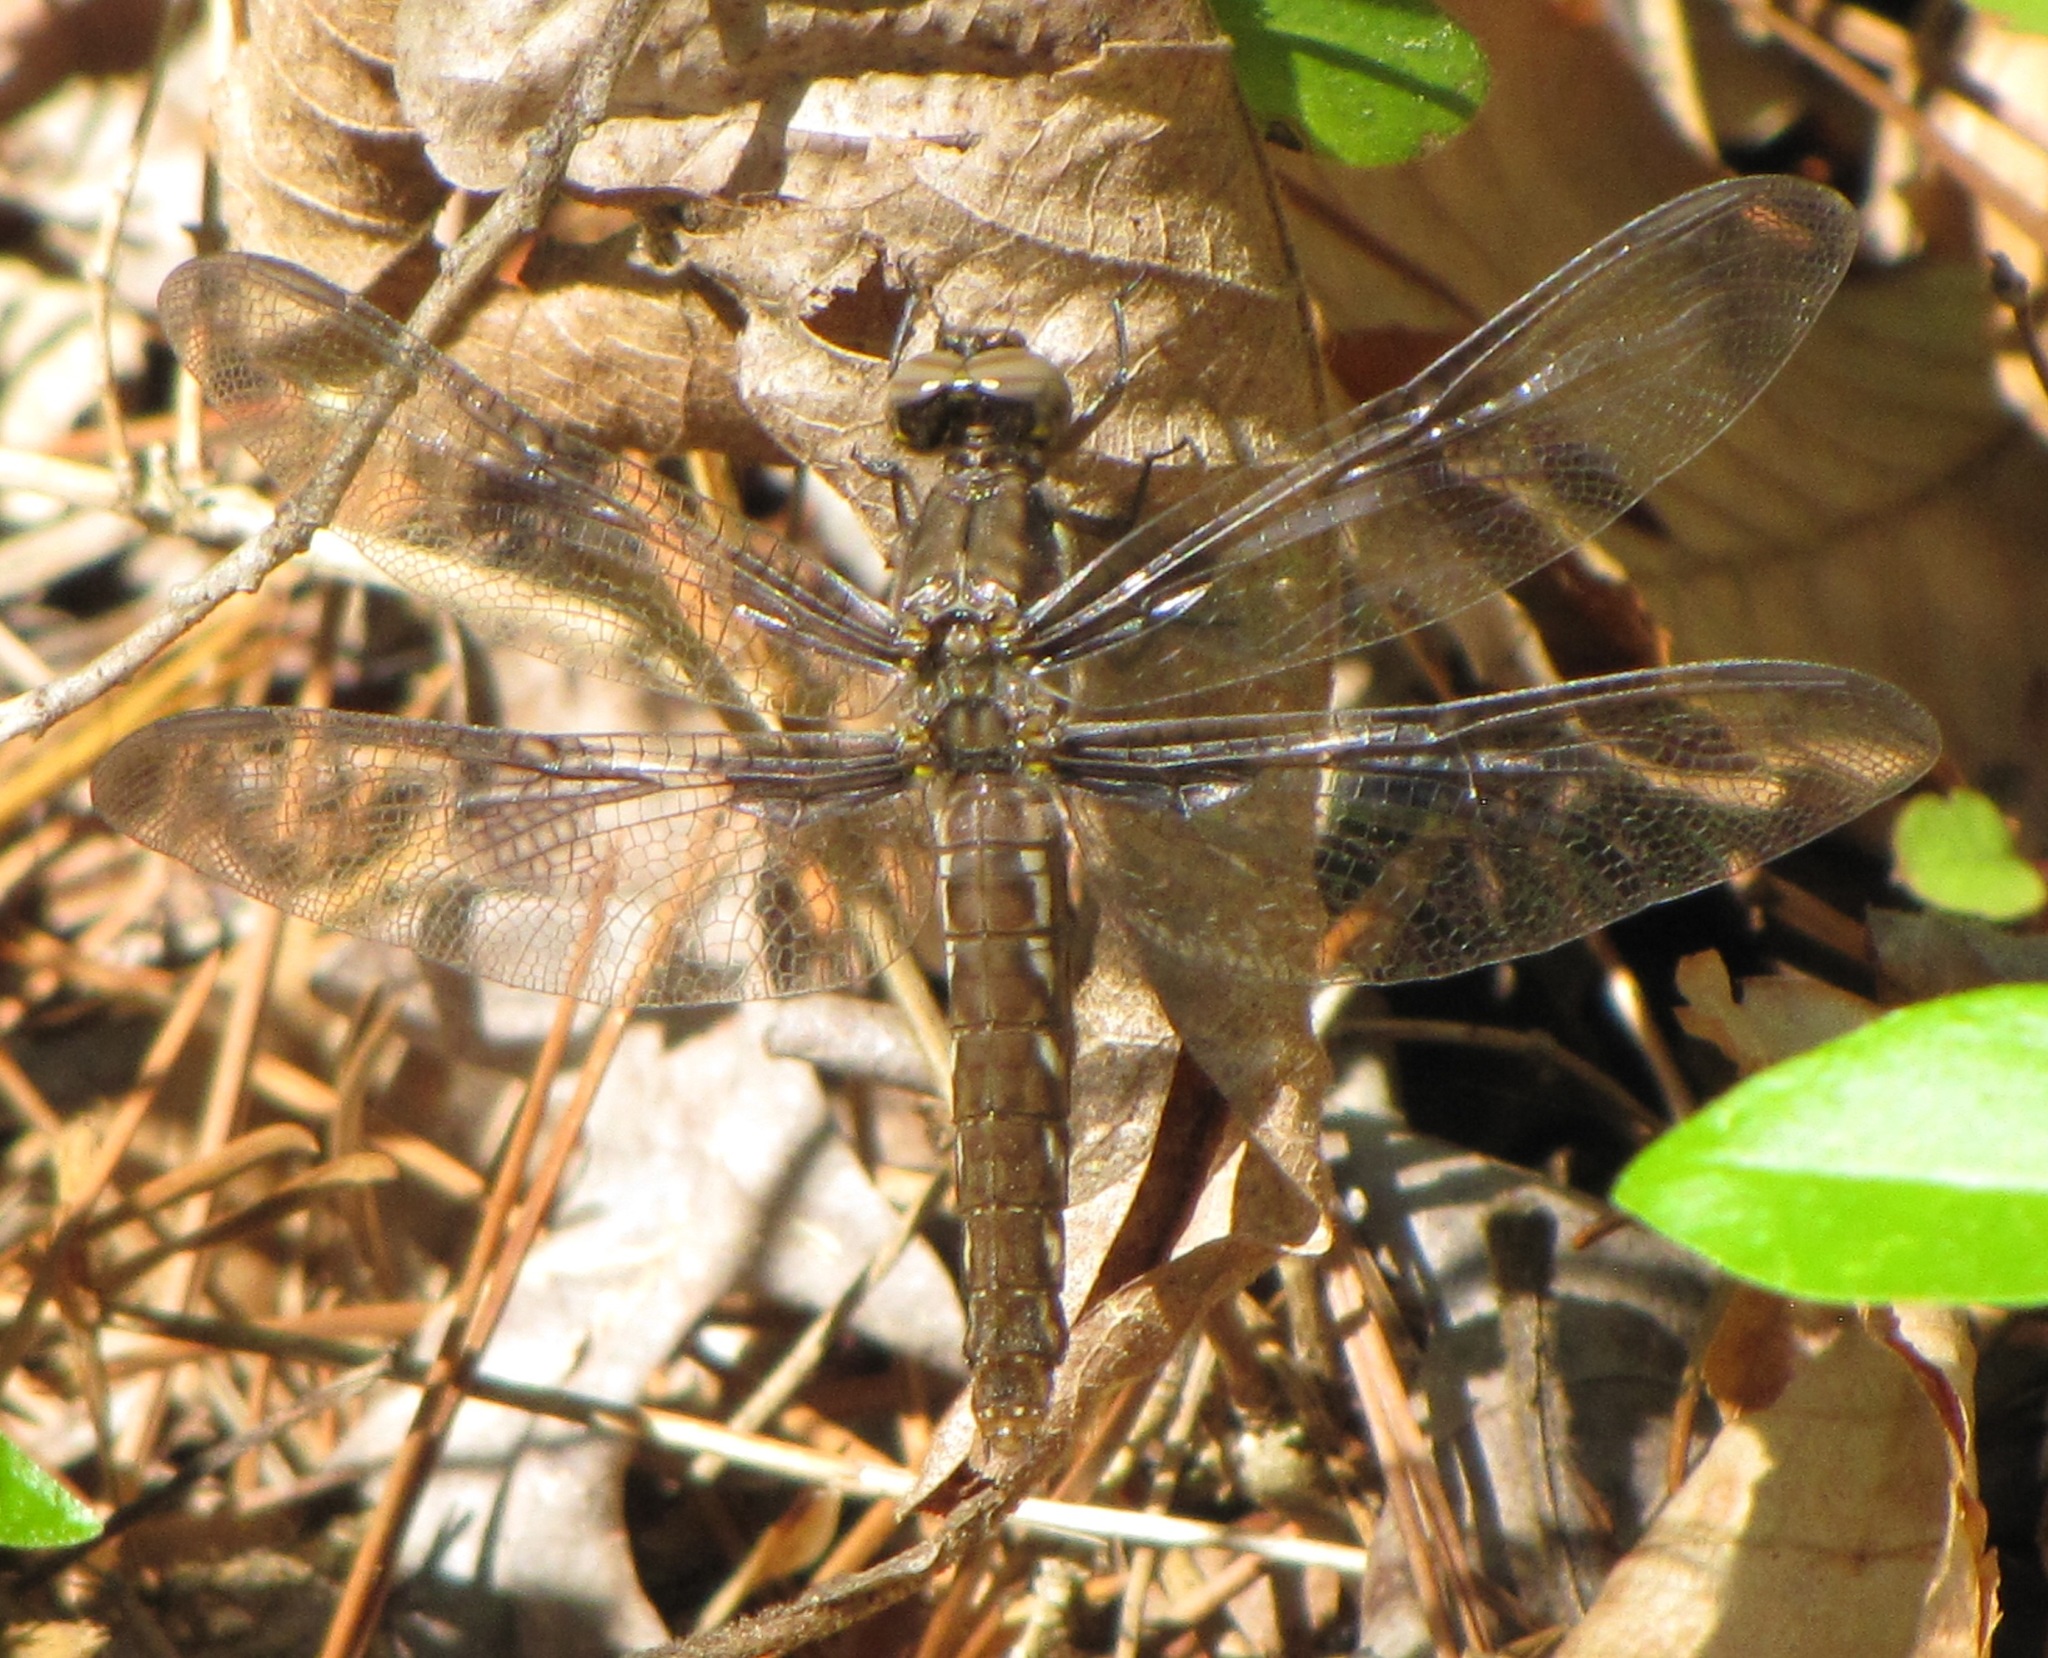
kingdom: Animalia
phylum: Arthropoda
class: Insecta
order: Odonata
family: Libellulidae
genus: Plathemis
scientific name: Plathemis lydia
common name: Common whitetail
